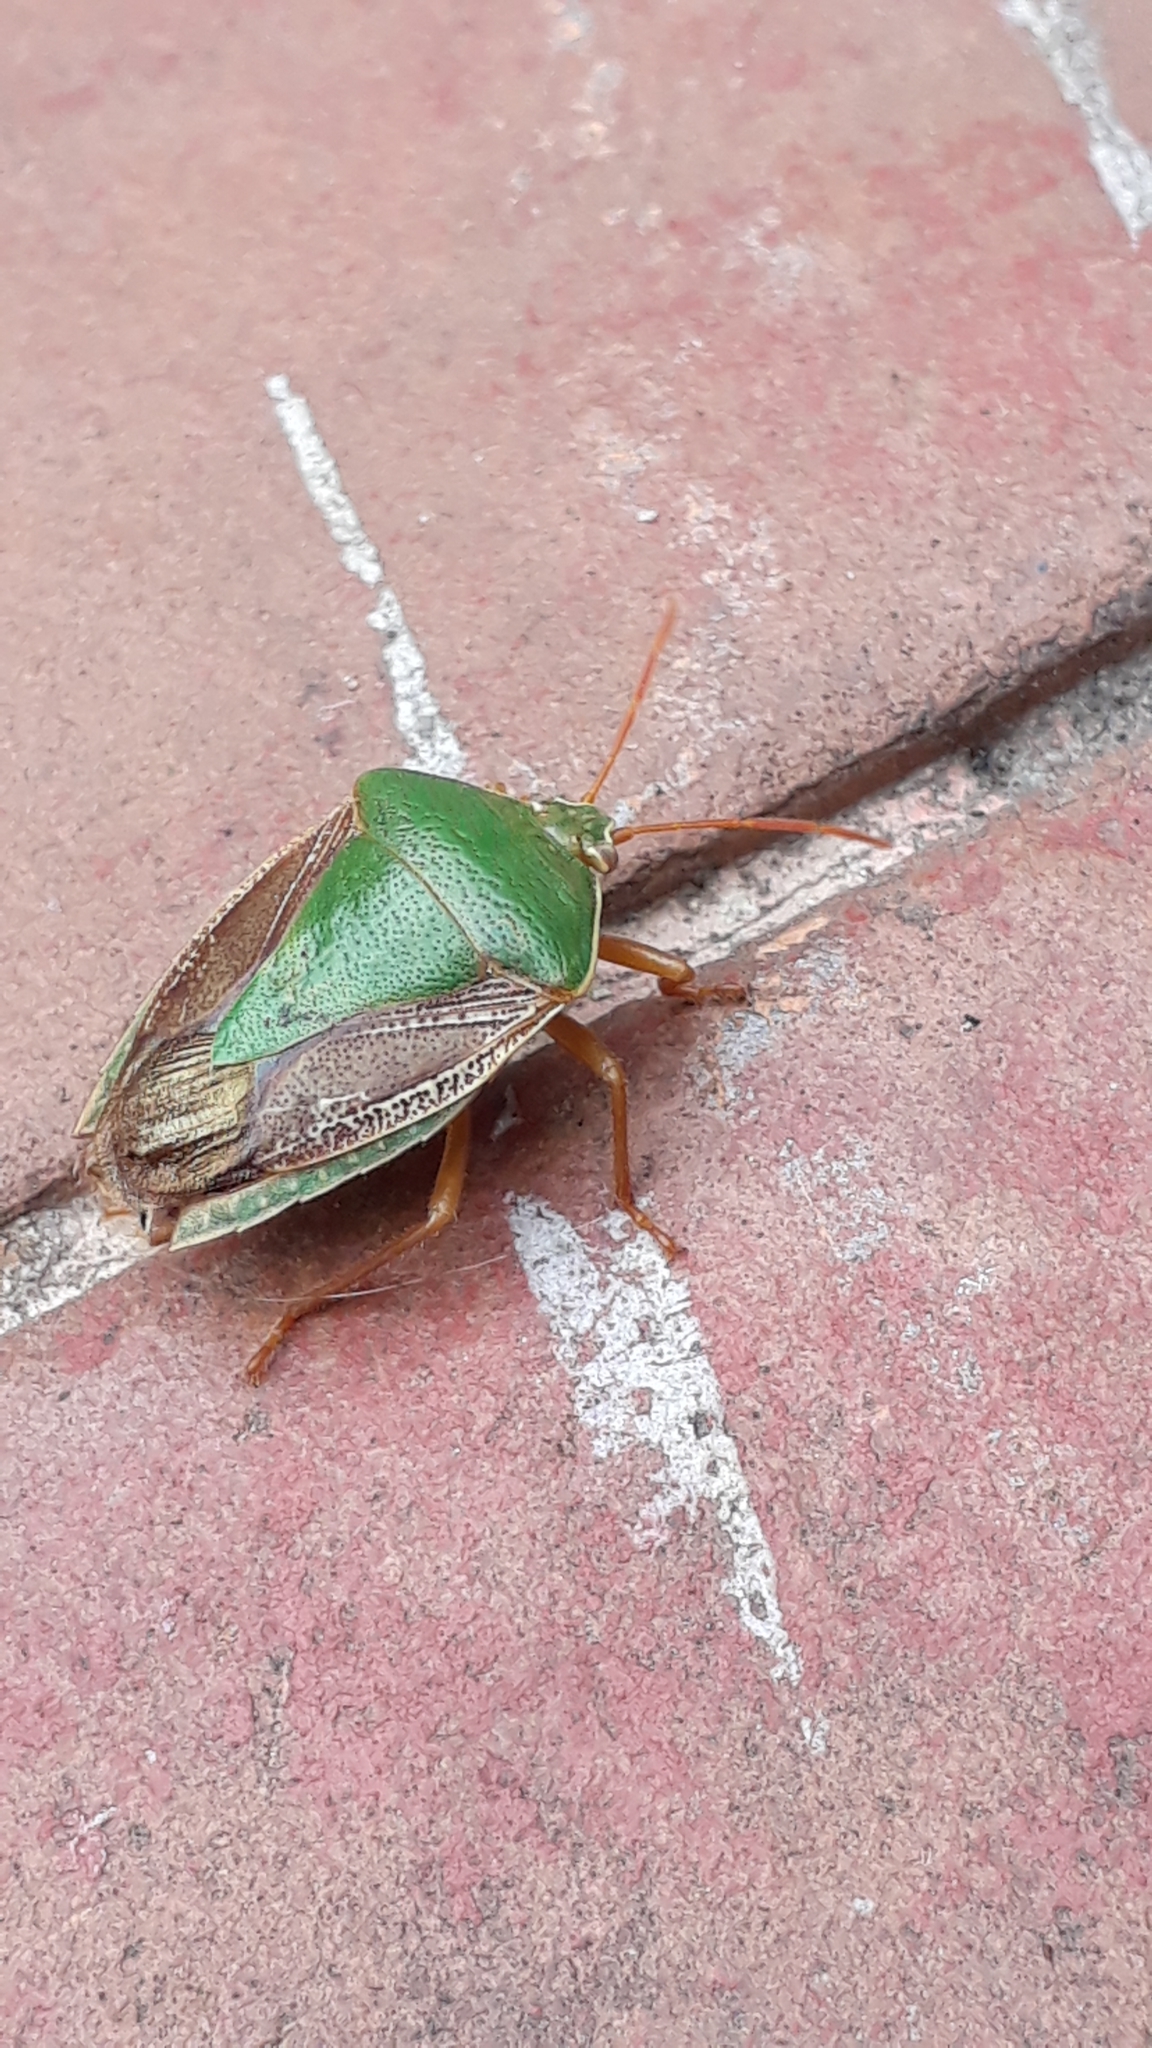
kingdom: Animalia
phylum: Arthropoda
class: Insecta
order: Hemiptera
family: Pentatomidae
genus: Edessa
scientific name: Edessa meditabunda
